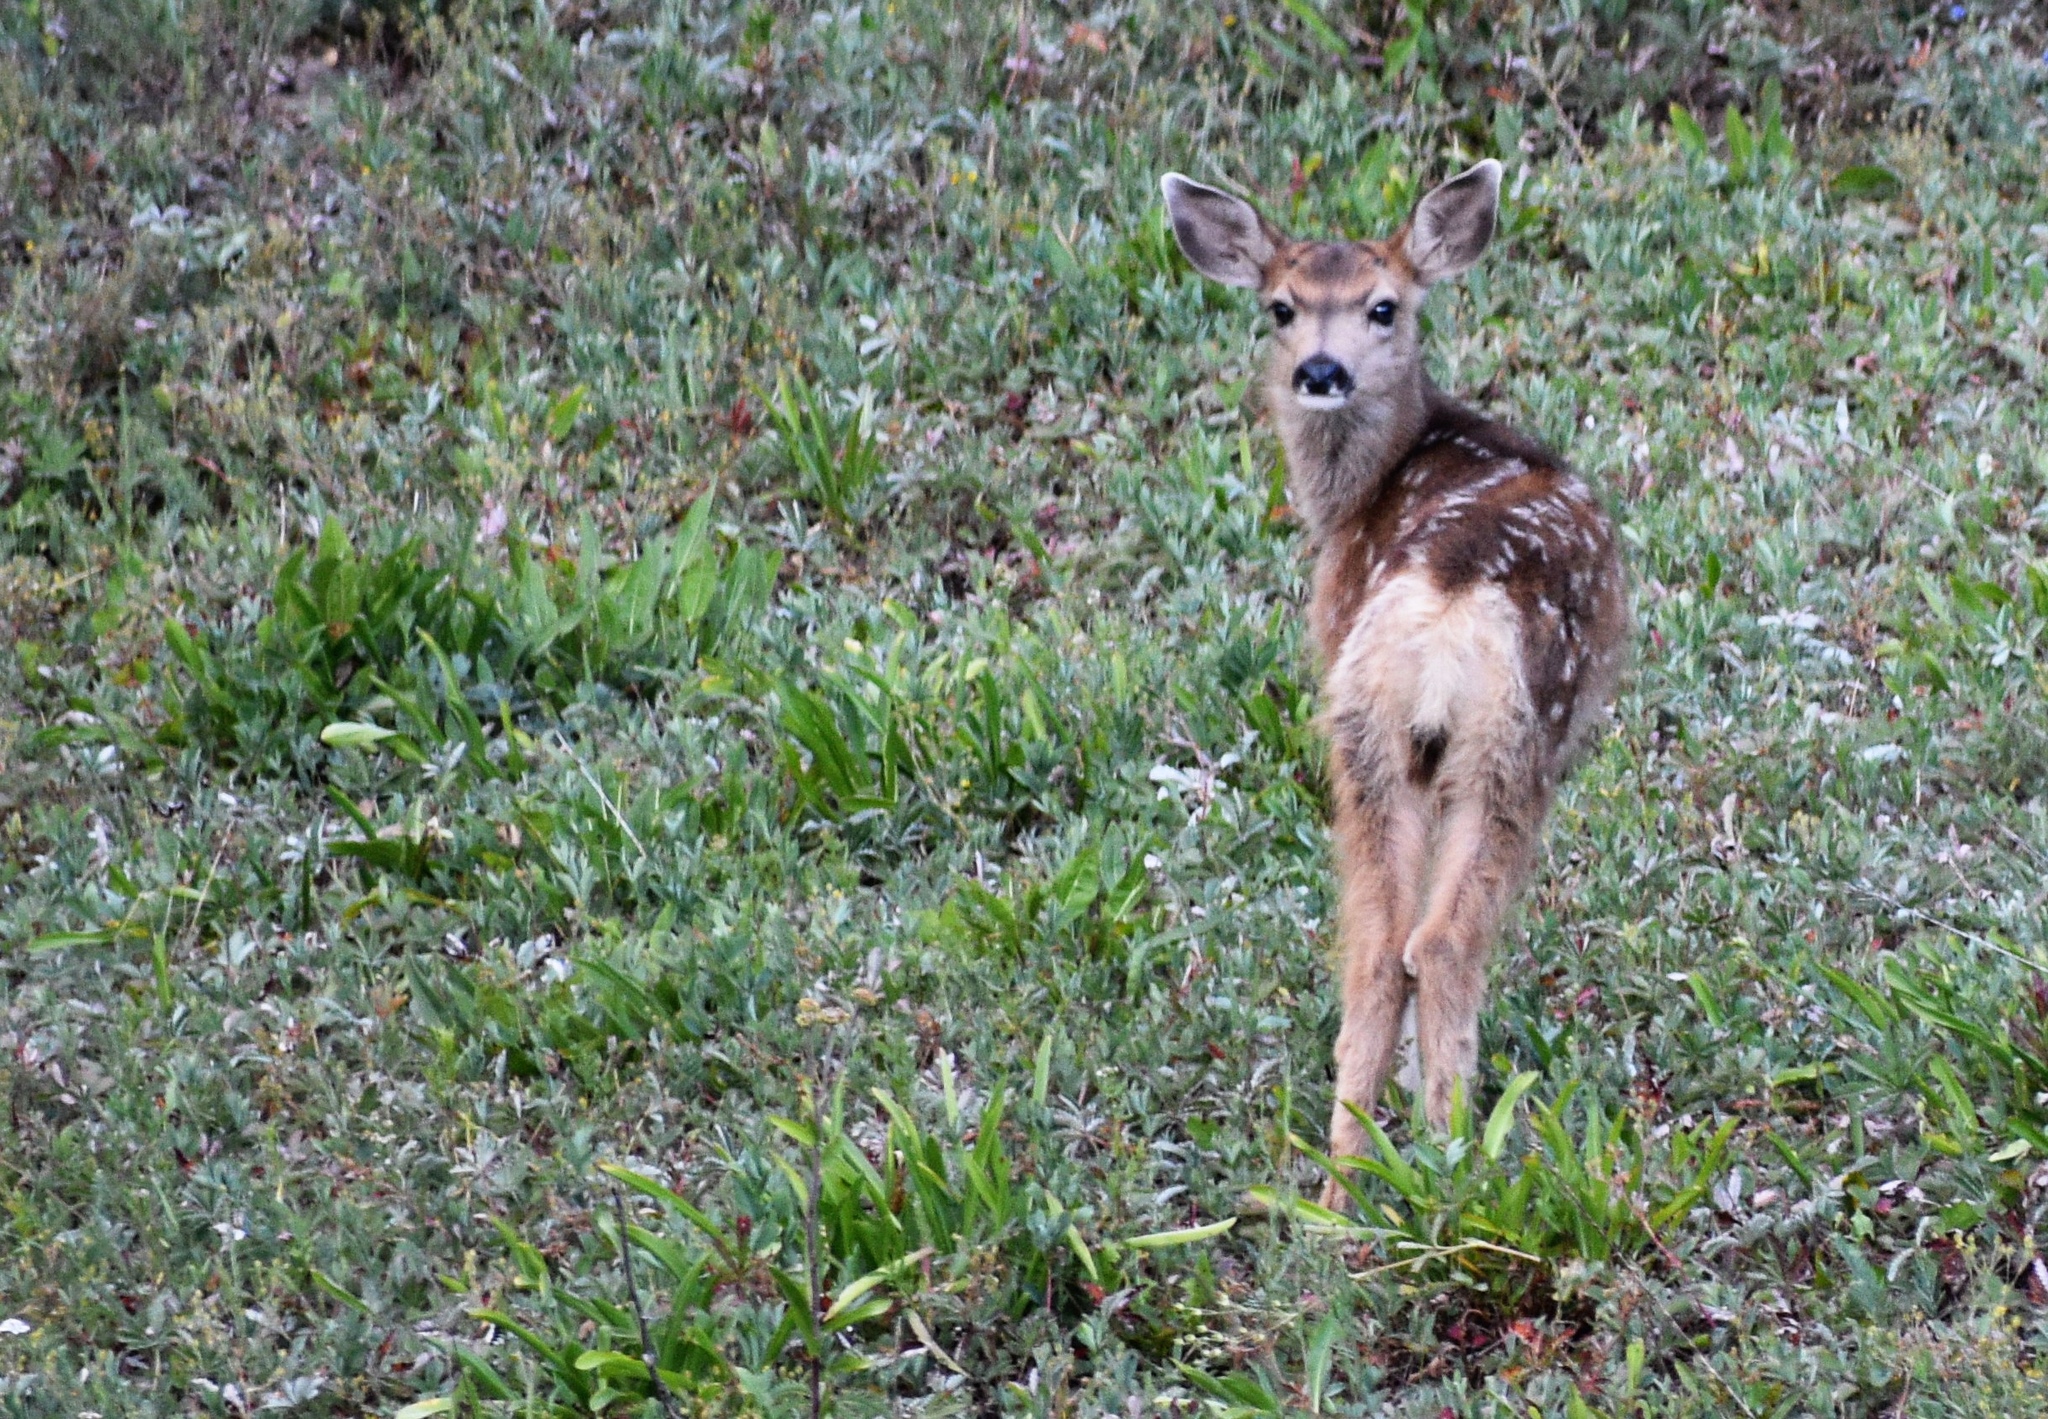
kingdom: Animalia
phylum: Chordata
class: Mammalia
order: Artiodactyla
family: Cervidae
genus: Odocoileus
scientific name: Odocoileus hemionus
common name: Mule deer
